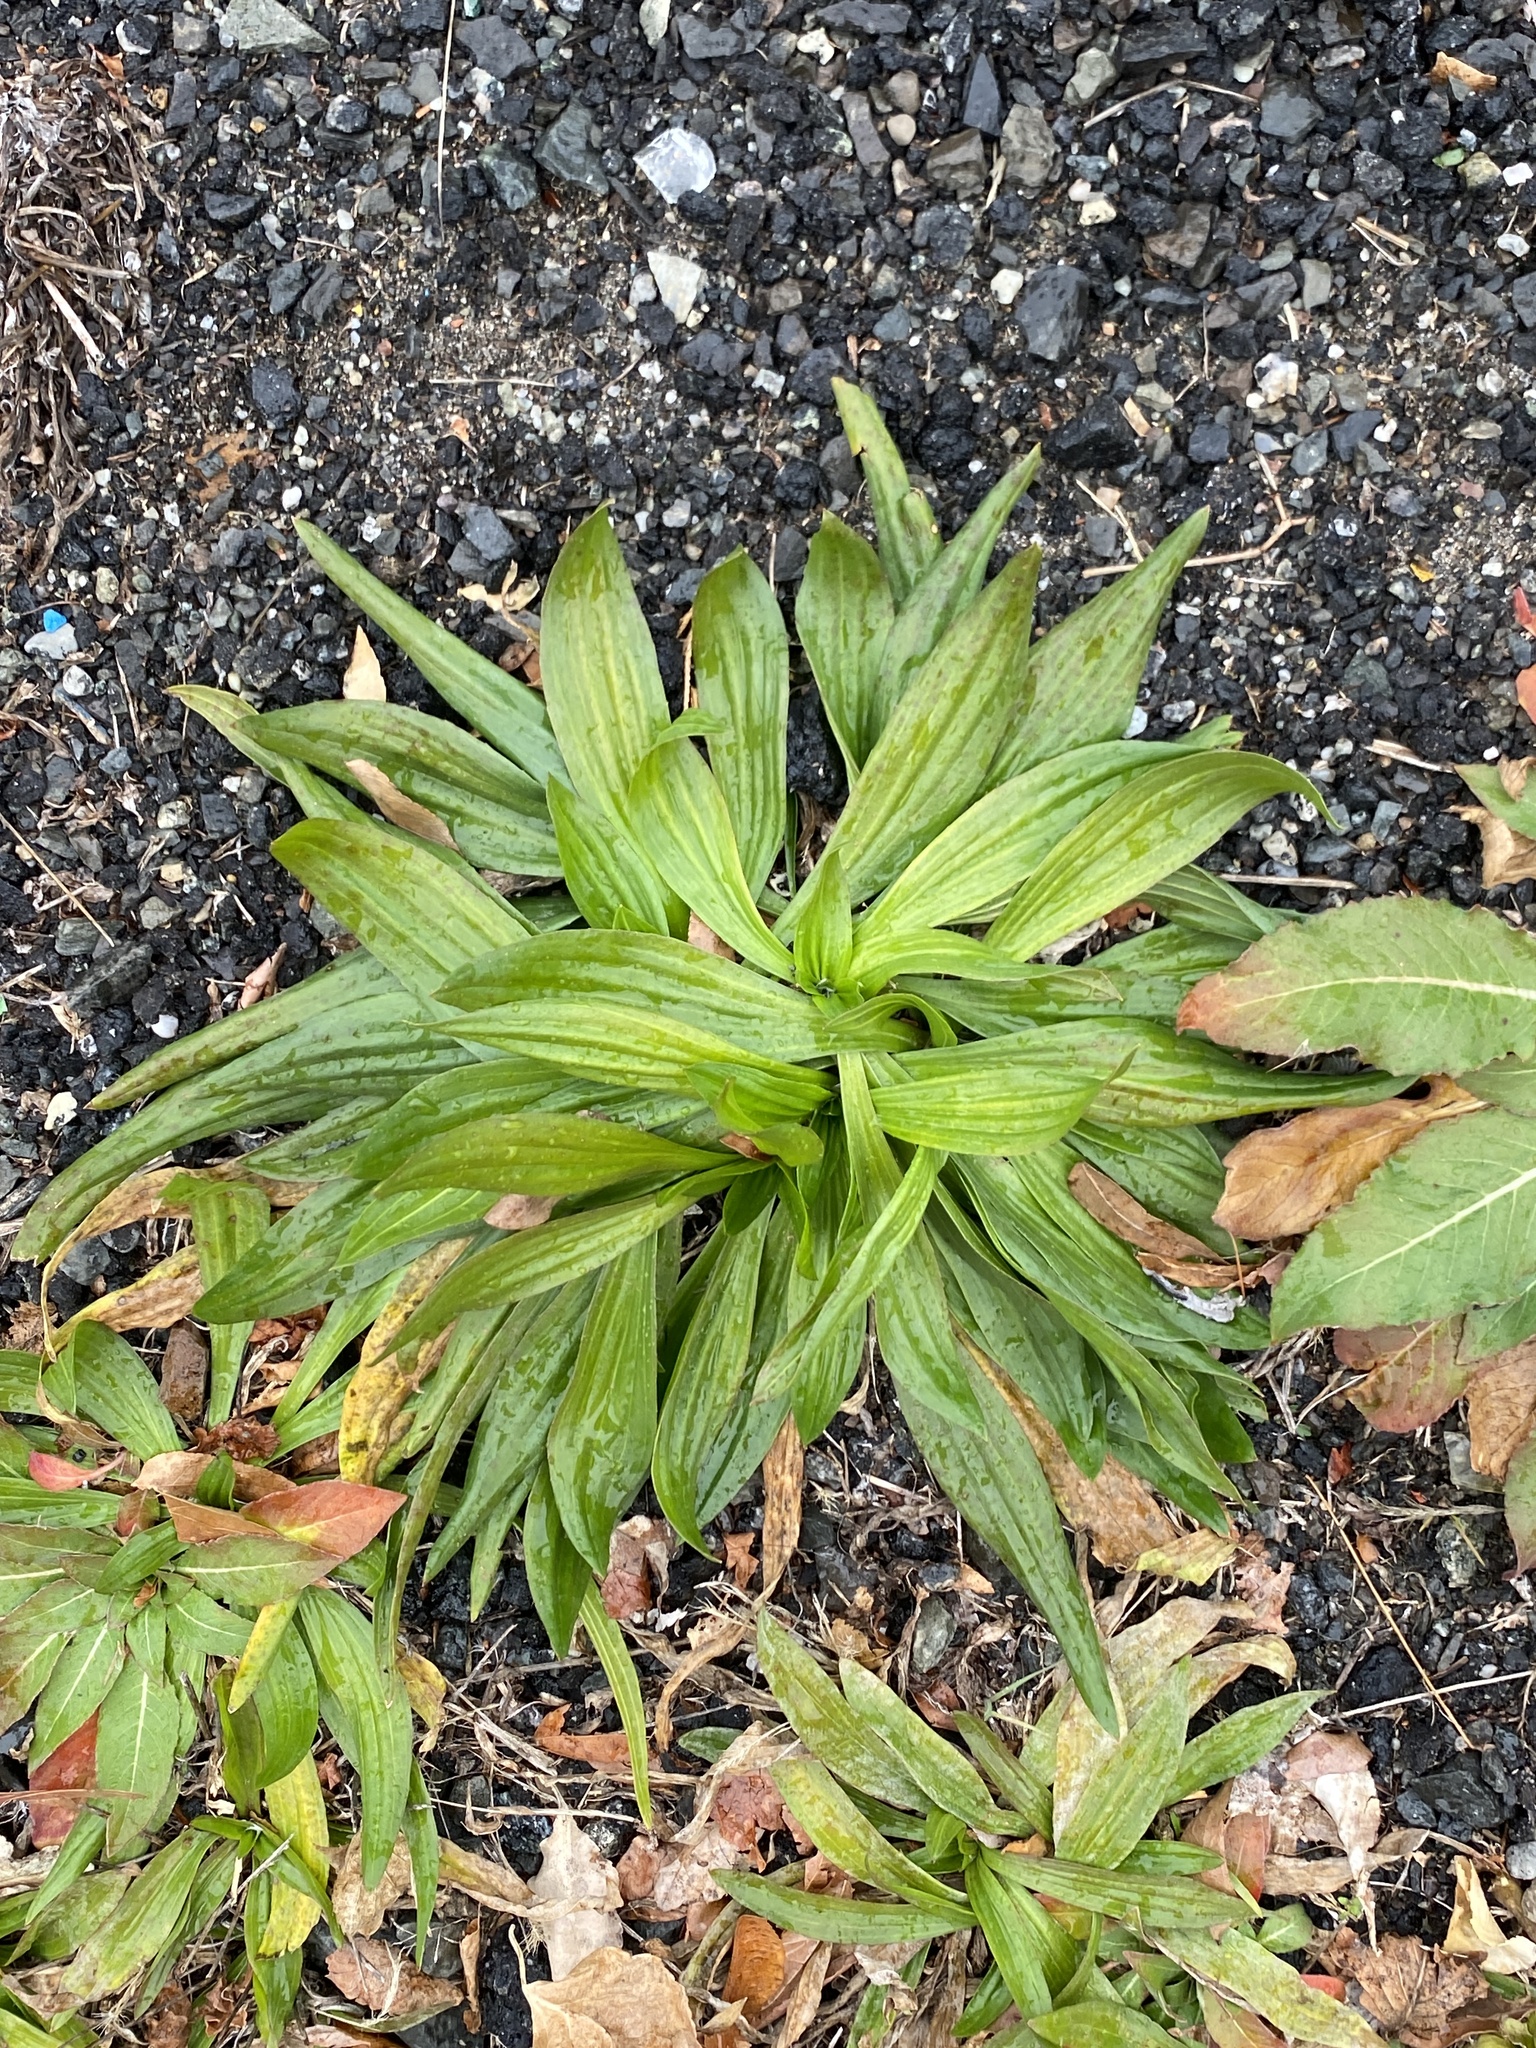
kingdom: Plantae
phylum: Tracheophyta
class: Magnoliopsida
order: Lamiales
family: Plantaginaceae
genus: Plantago
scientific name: Plantago lanceolata
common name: Ribwort plantain
